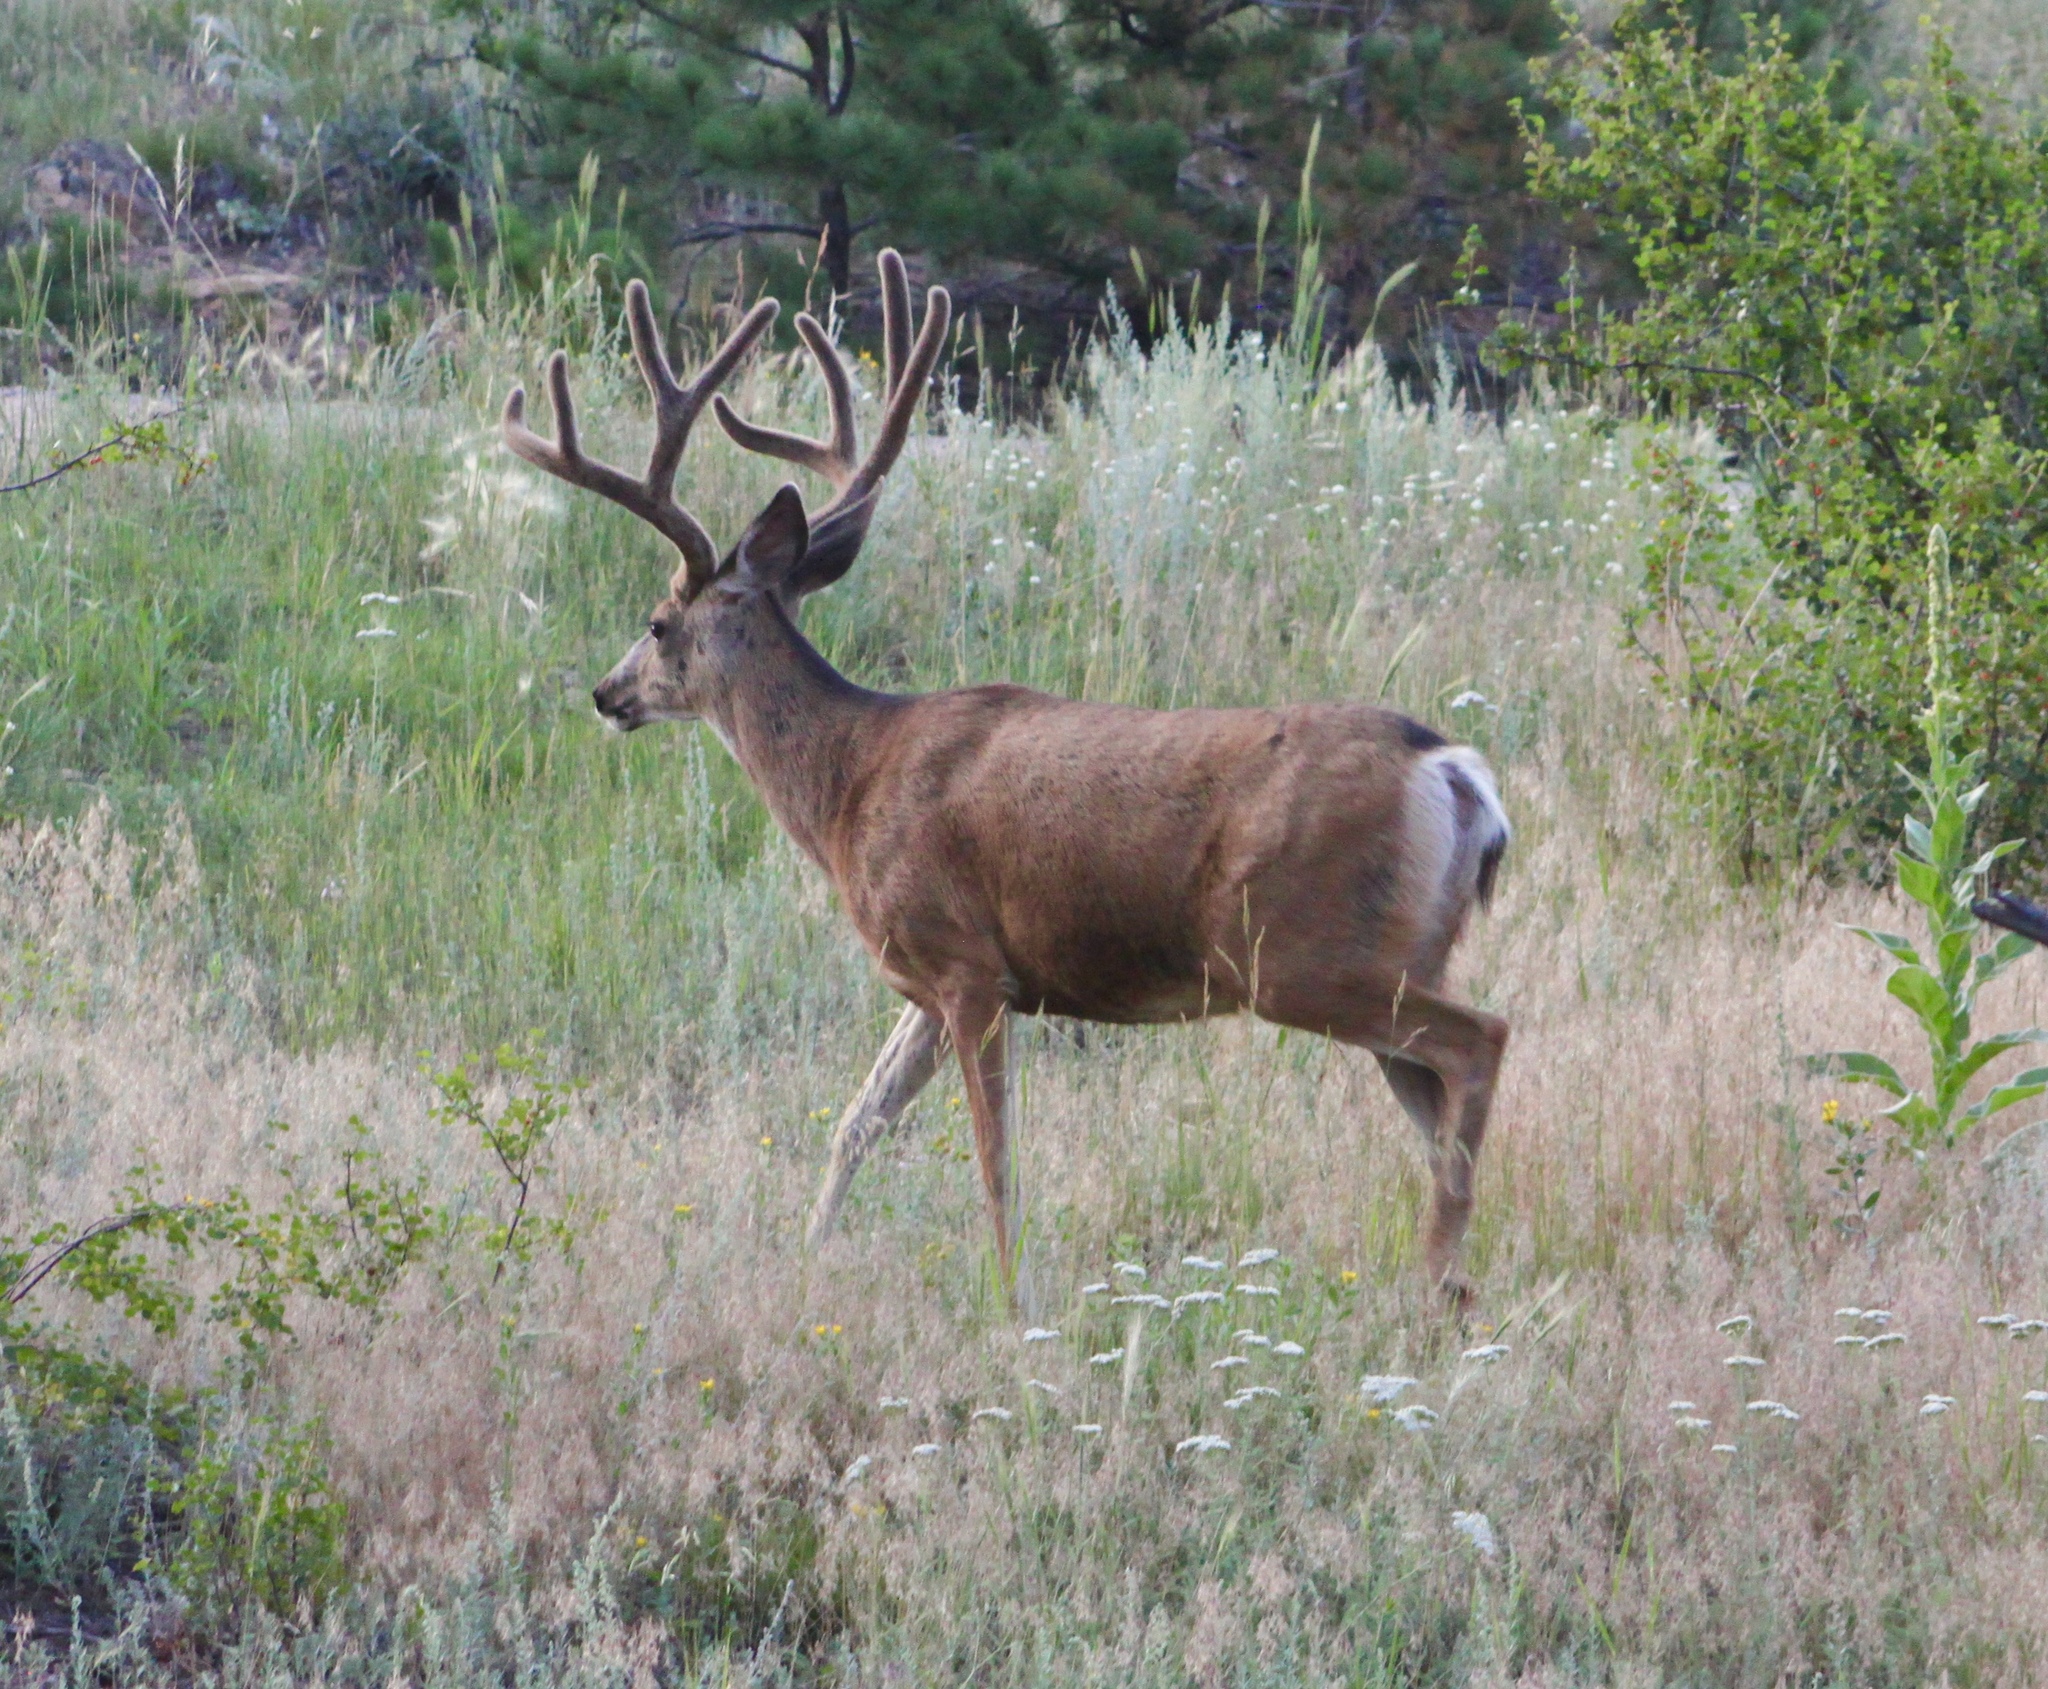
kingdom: Animalia
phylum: Chordata
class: Mammalia
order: Artiodactyla
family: Cervidae
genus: Odocoileus
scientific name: Odocoileus hemionus
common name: Mule deer
